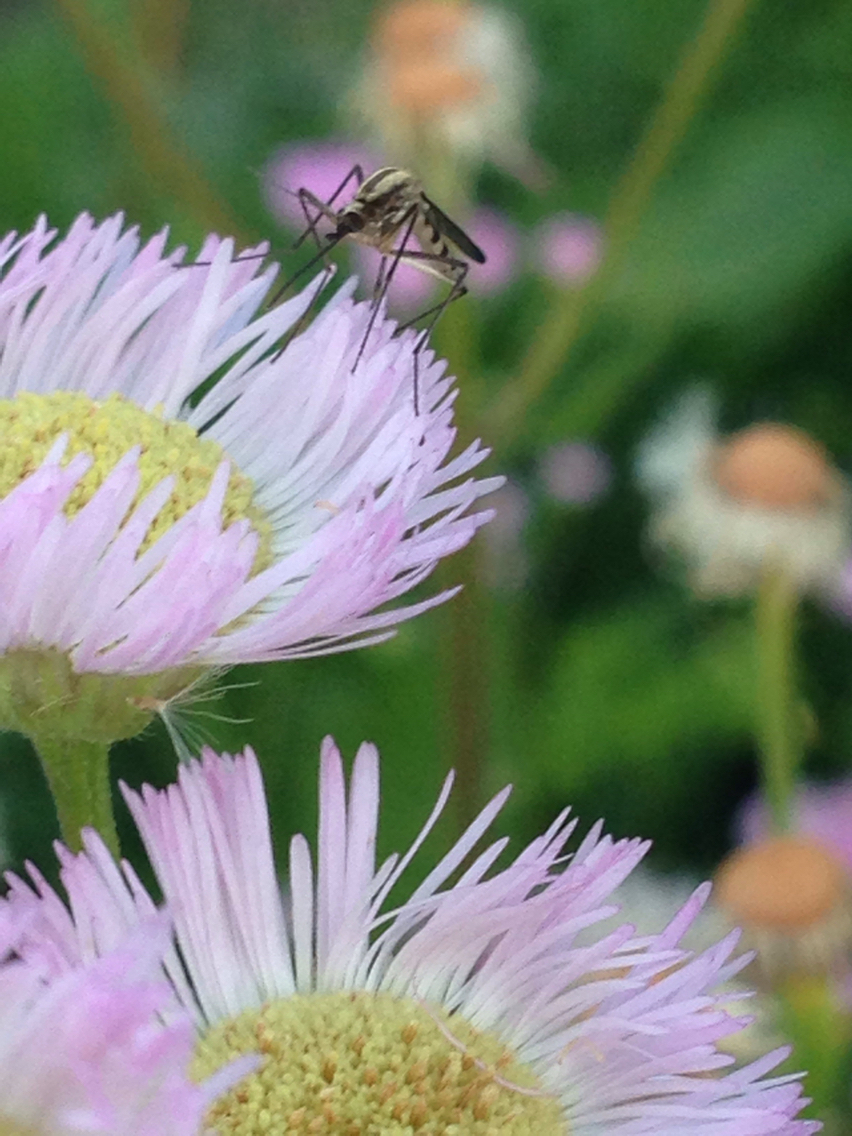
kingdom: Animalia
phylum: Arthropoda
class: Insecta
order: Diptera
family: Culicidae
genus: Aedes
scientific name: Aedes trivittatus
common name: Plains floodwater mosquito
